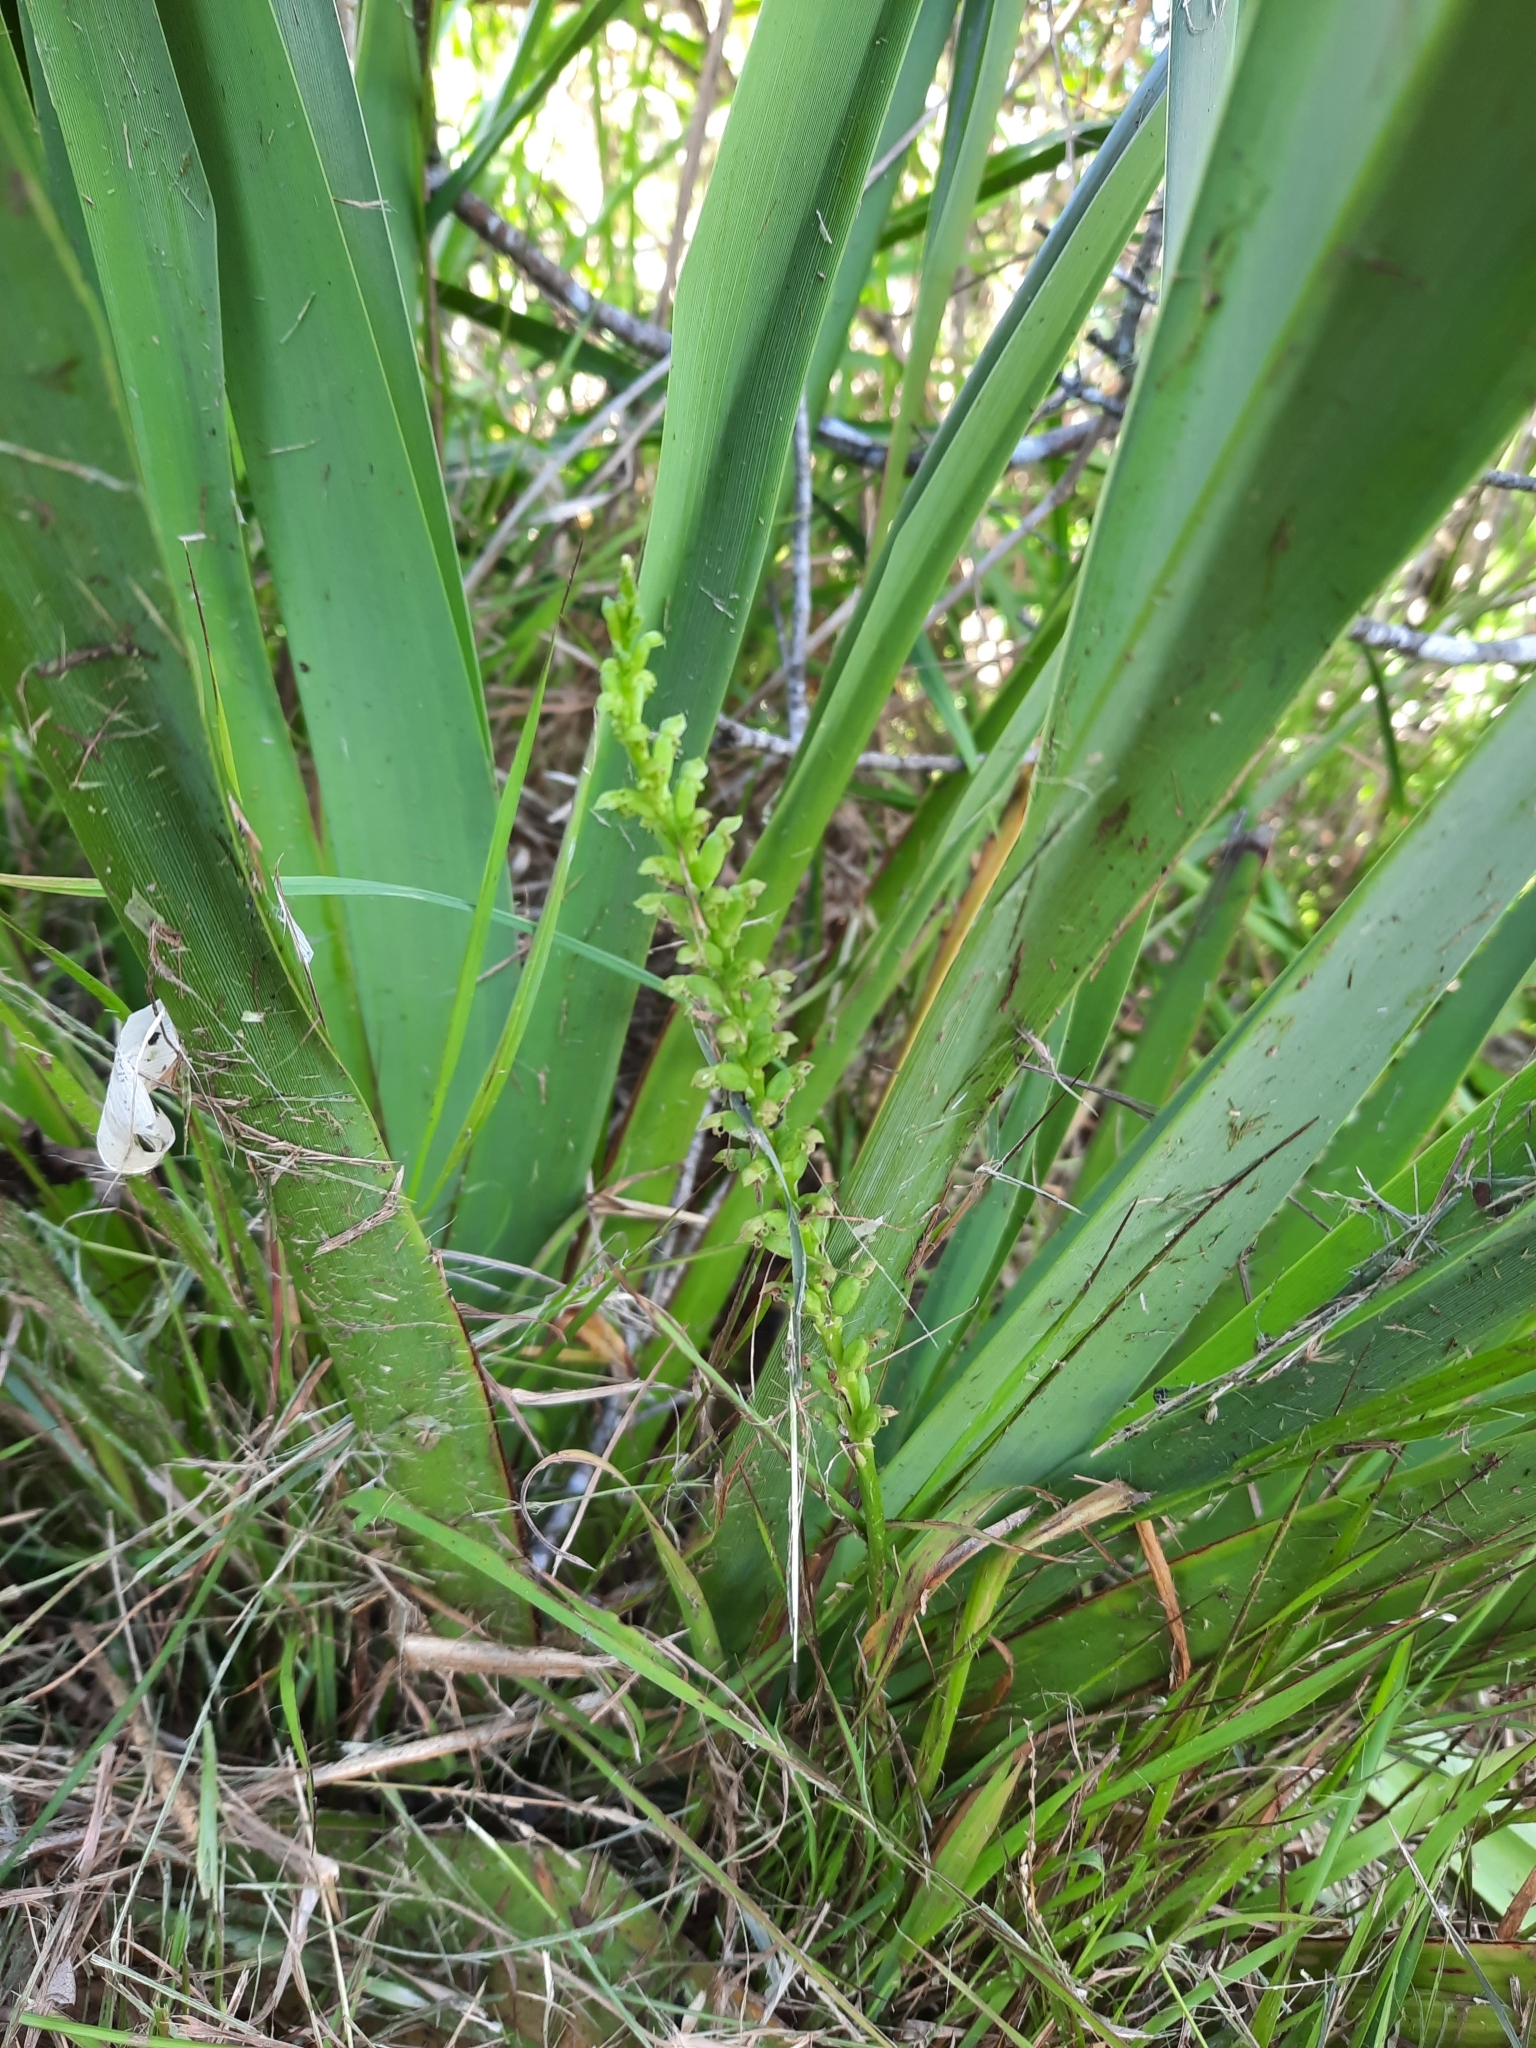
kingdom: Plantae
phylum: Tracheophyta
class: Liliopsida
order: Asparagales
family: Orchidaceae
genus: Microtis
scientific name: Microtis unifolia
